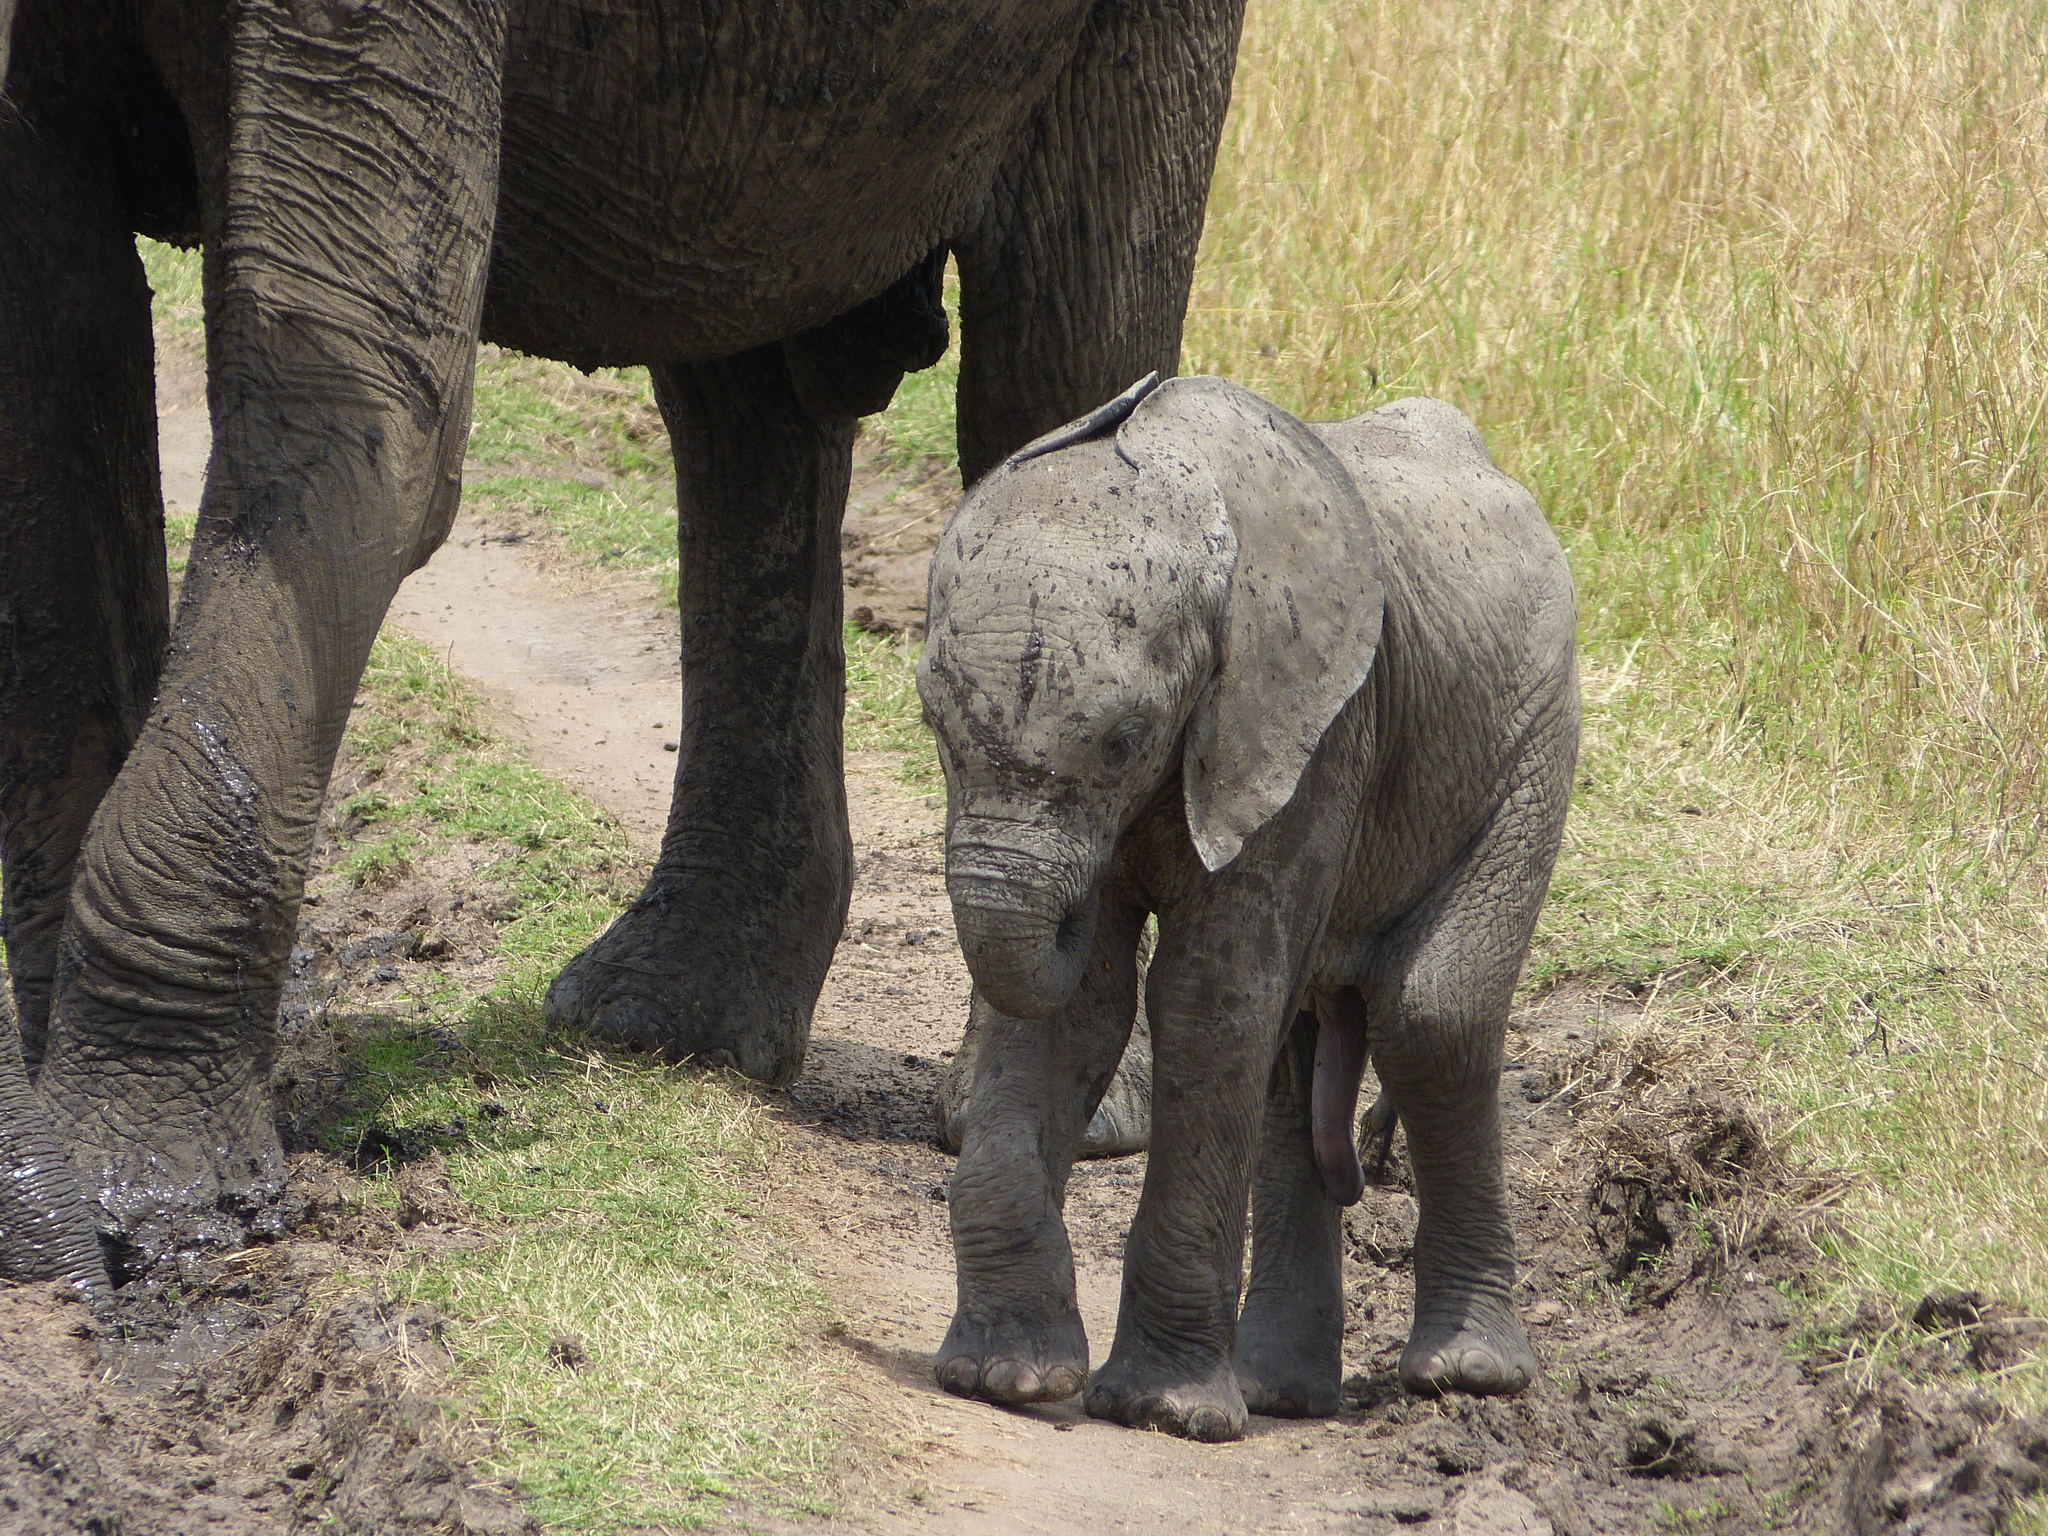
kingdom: Animalia
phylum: Chordata
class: Mammalia
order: Proboscidea
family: Elephantidae
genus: Loxodonta
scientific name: Loxodonta africana
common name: African elephant
